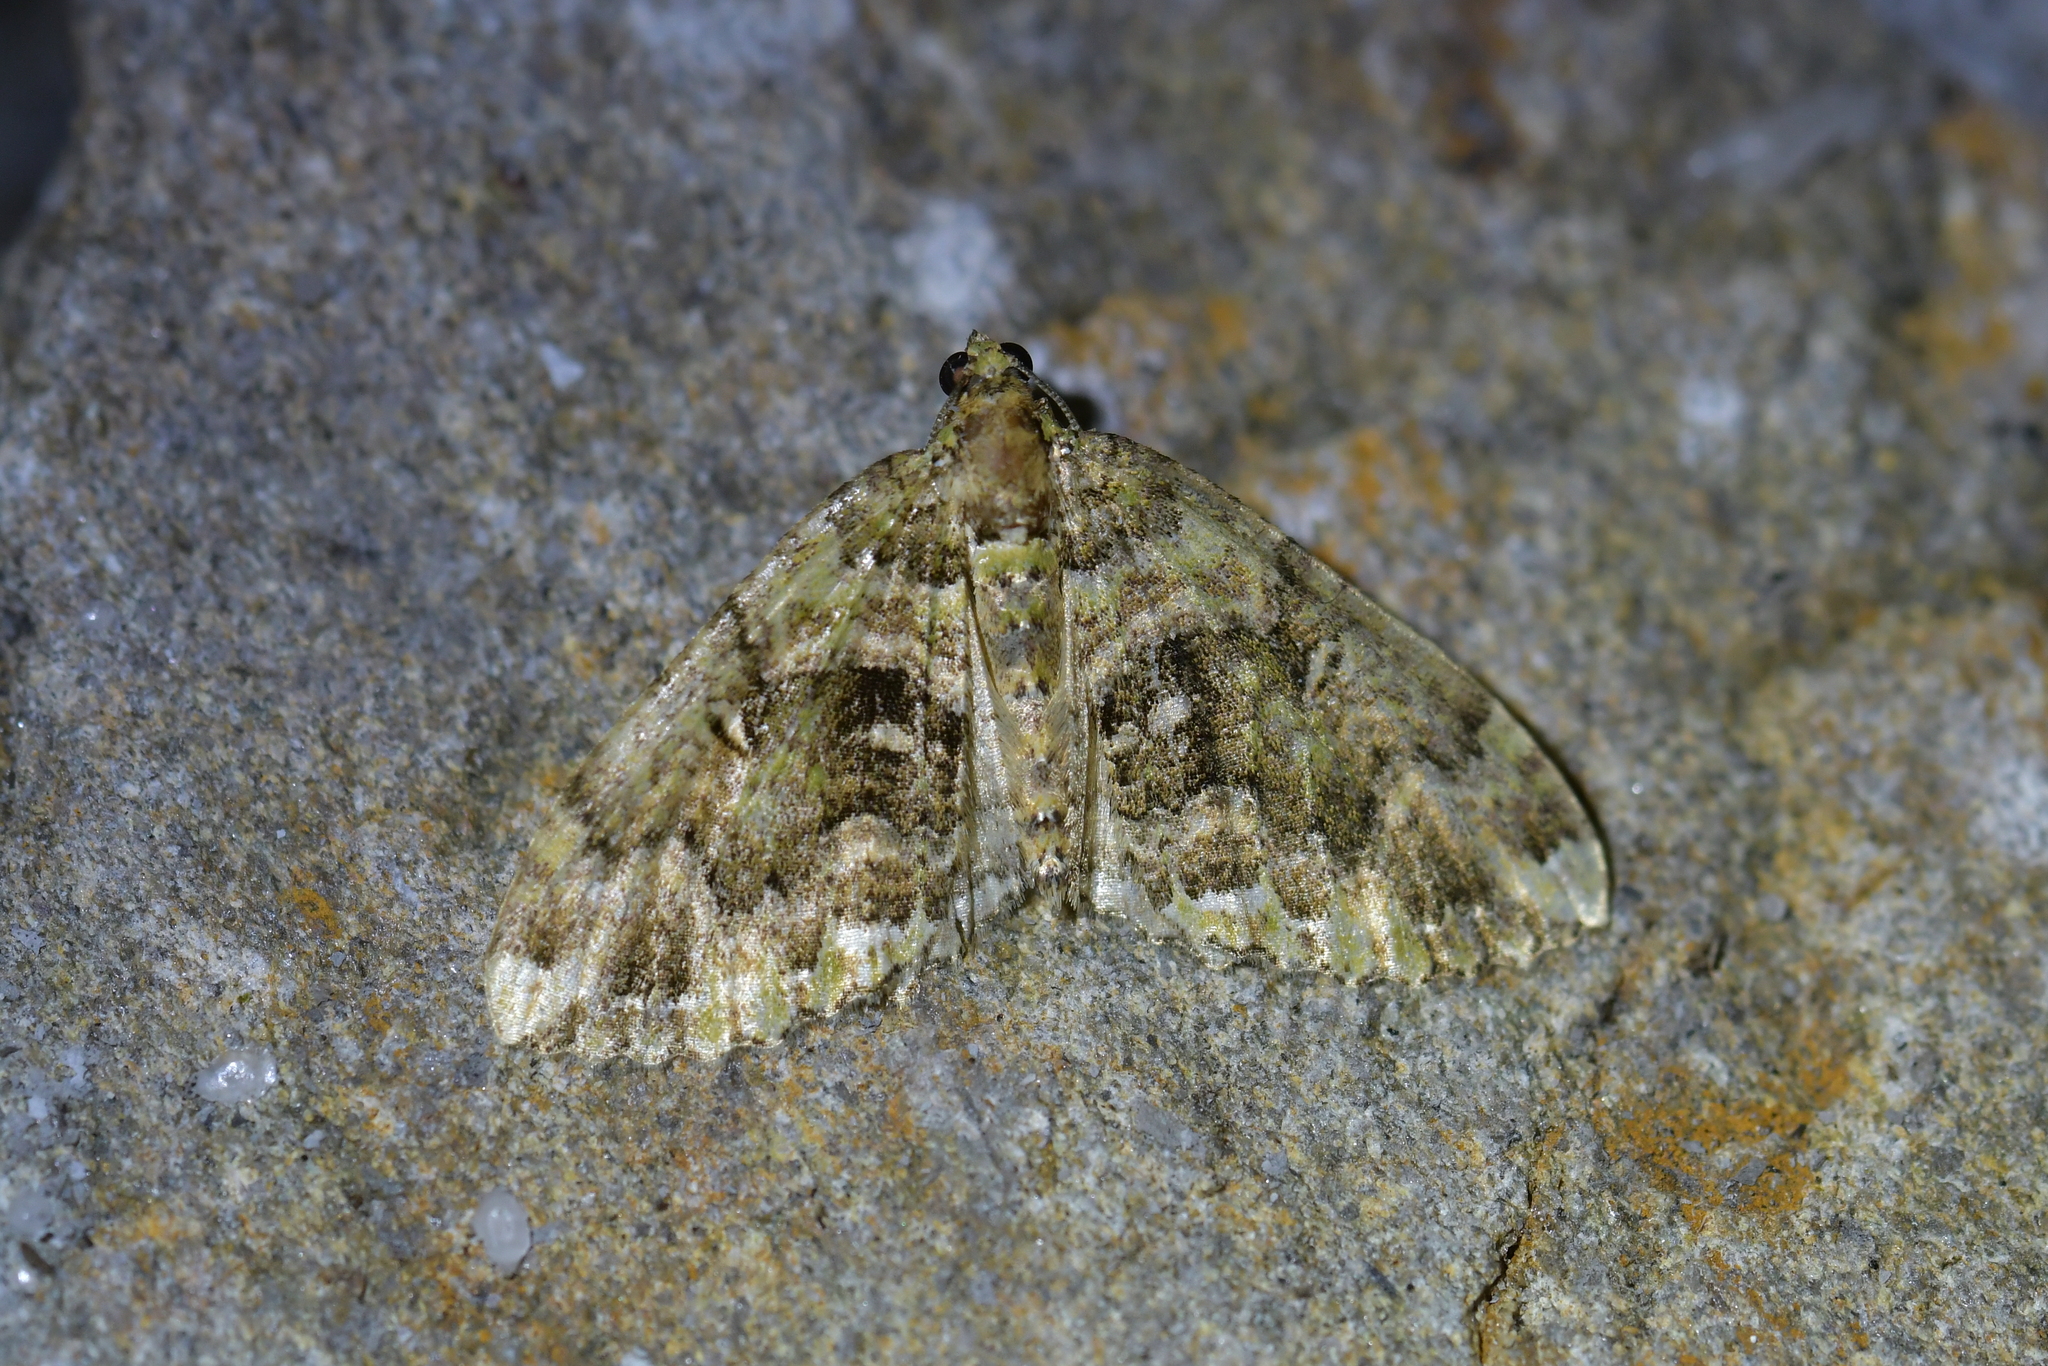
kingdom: Animalia
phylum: Arthropoda
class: Insecta
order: Lepidoptera
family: Geometridae
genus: Austrocidaria
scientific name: Austrocidaria similata
